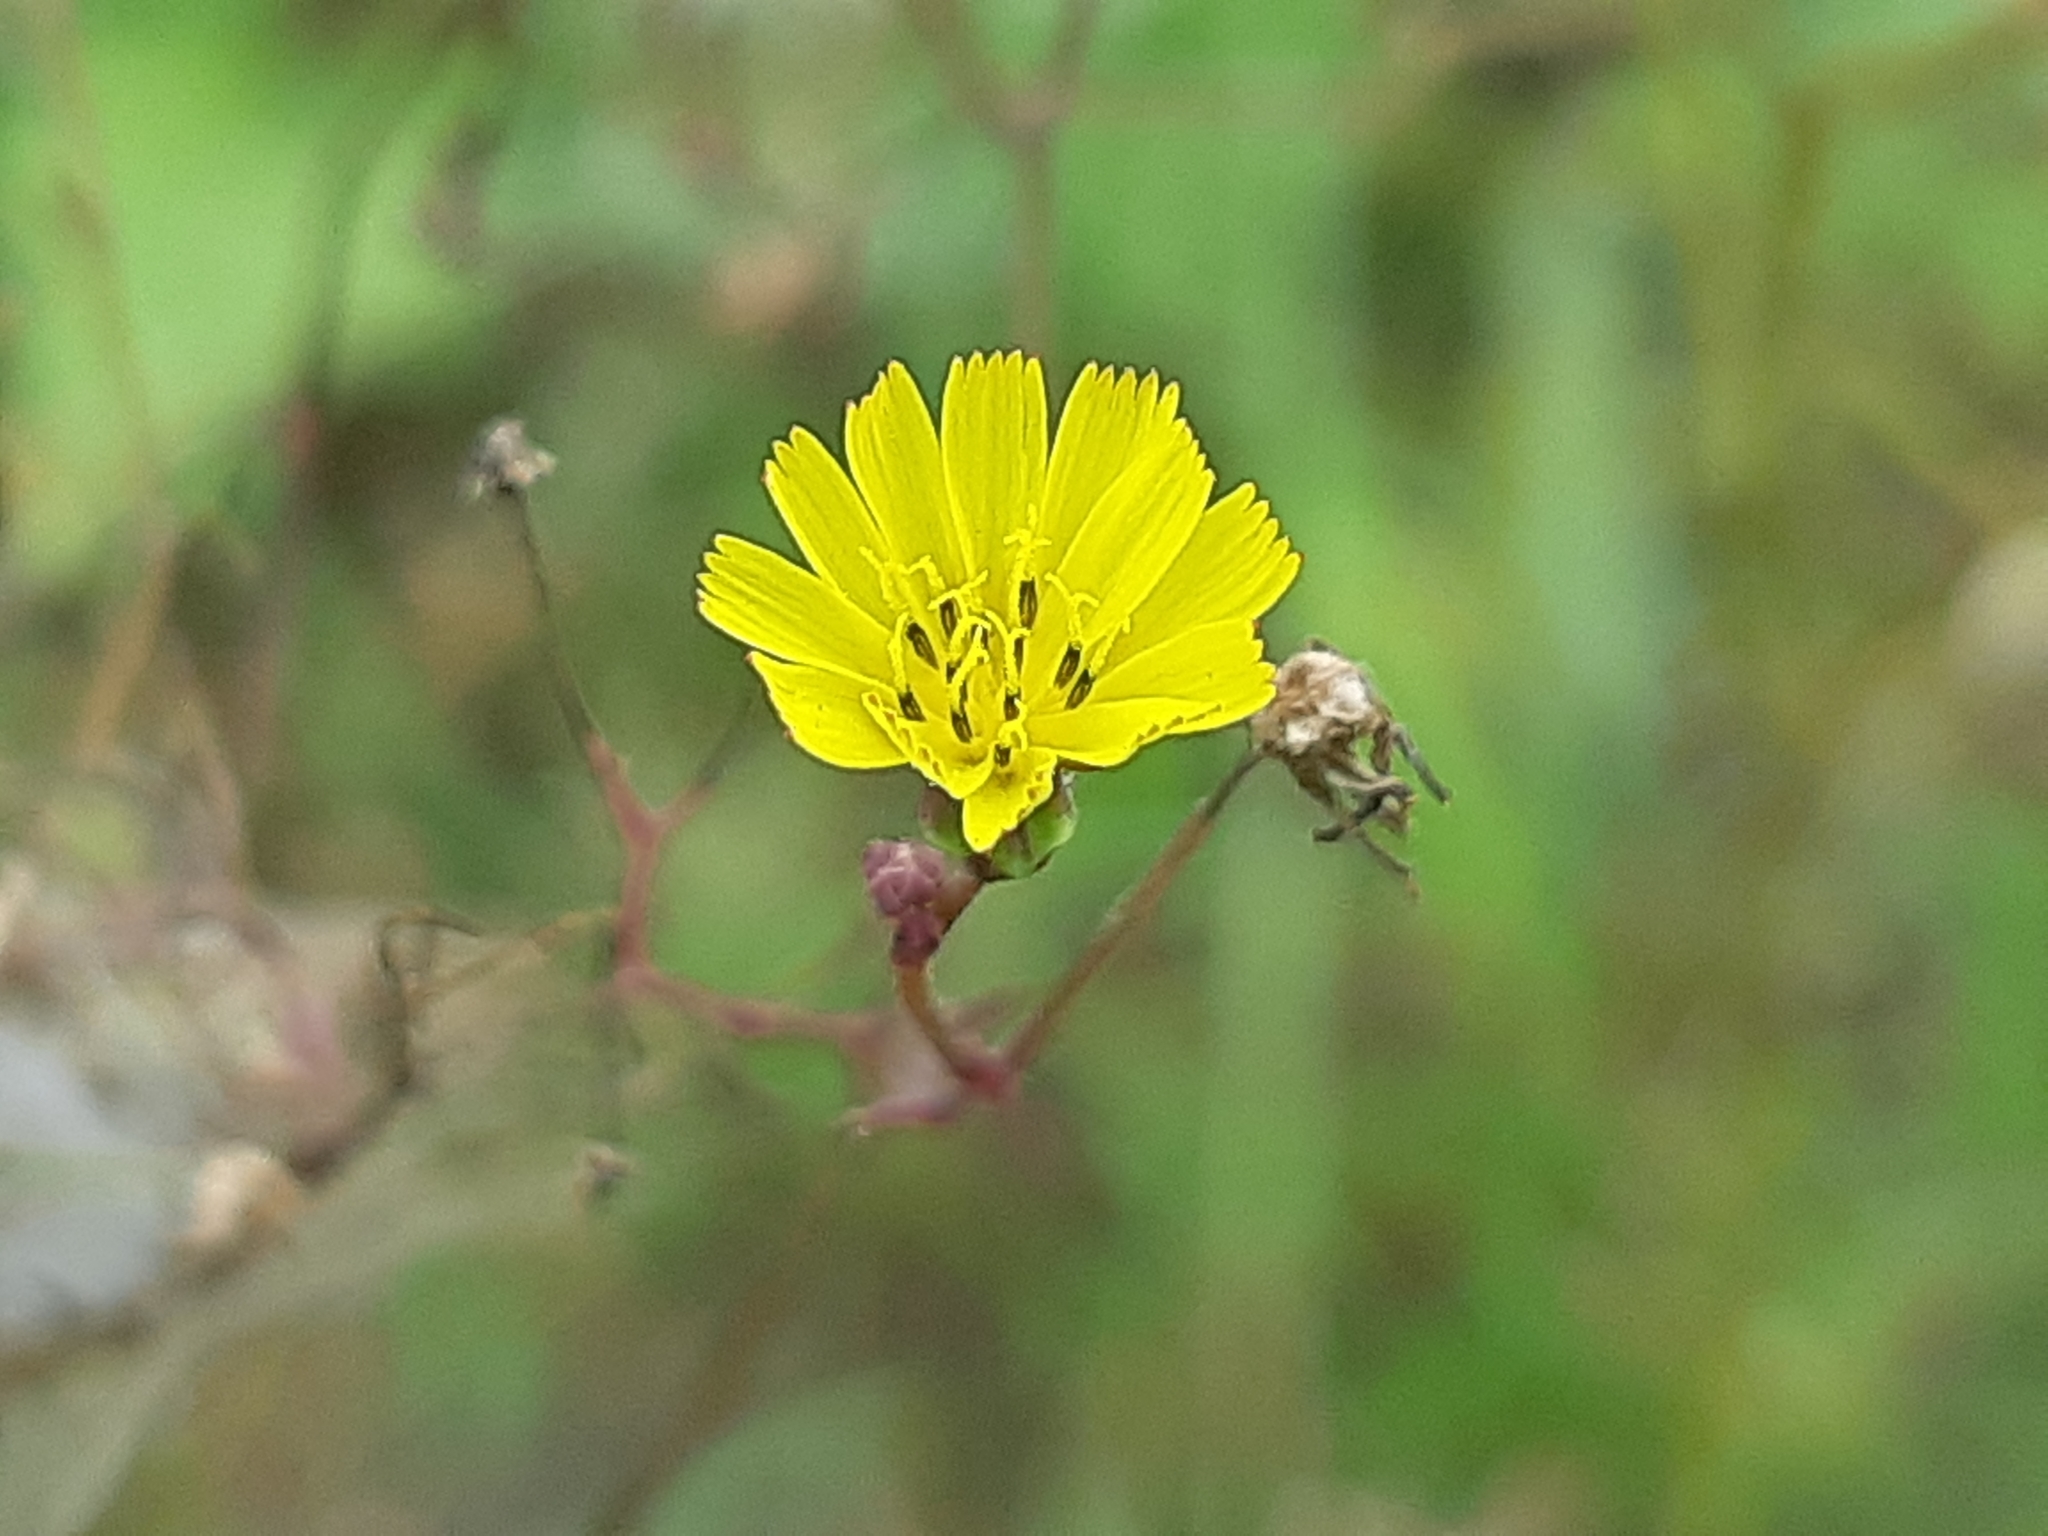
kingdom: Plantae
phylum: Tracheophyta
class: Magnoliopsida
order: Asterales
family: Asteraceae
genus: Youngia
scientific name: Youngia japonica
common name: Oriental false hawksbeard
